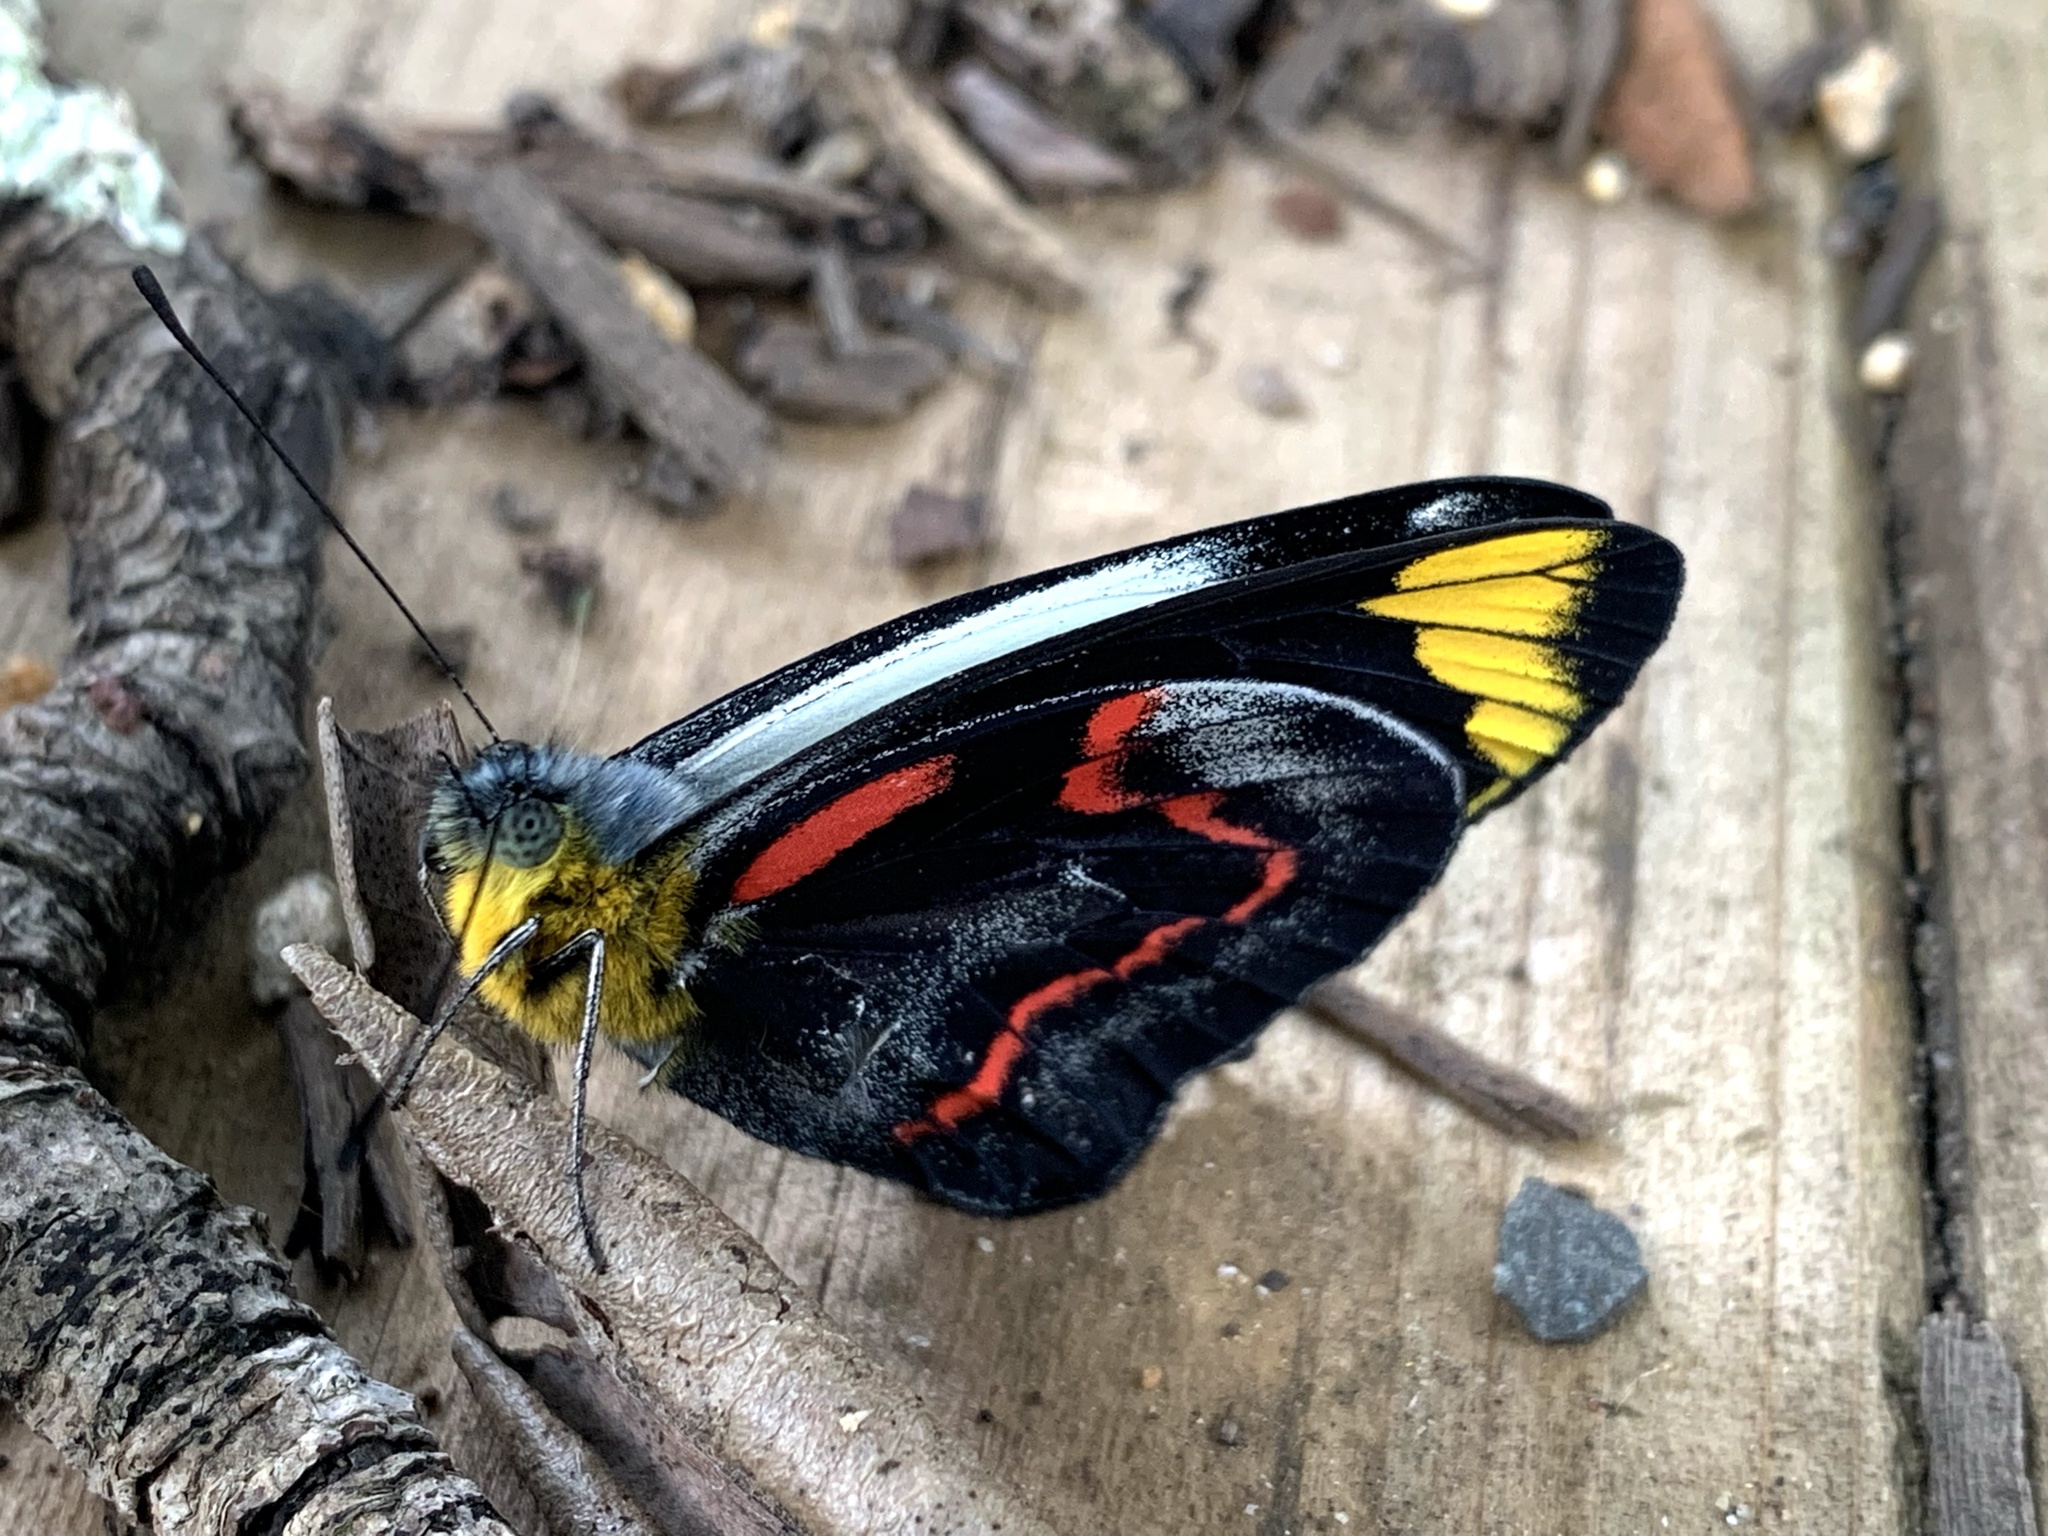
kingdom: Animalia
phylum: Arthropoda
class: Insecta
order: Lepidoptera
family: Pieridae
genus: Delias
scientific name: Delias nigrina
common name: Black jezebel
